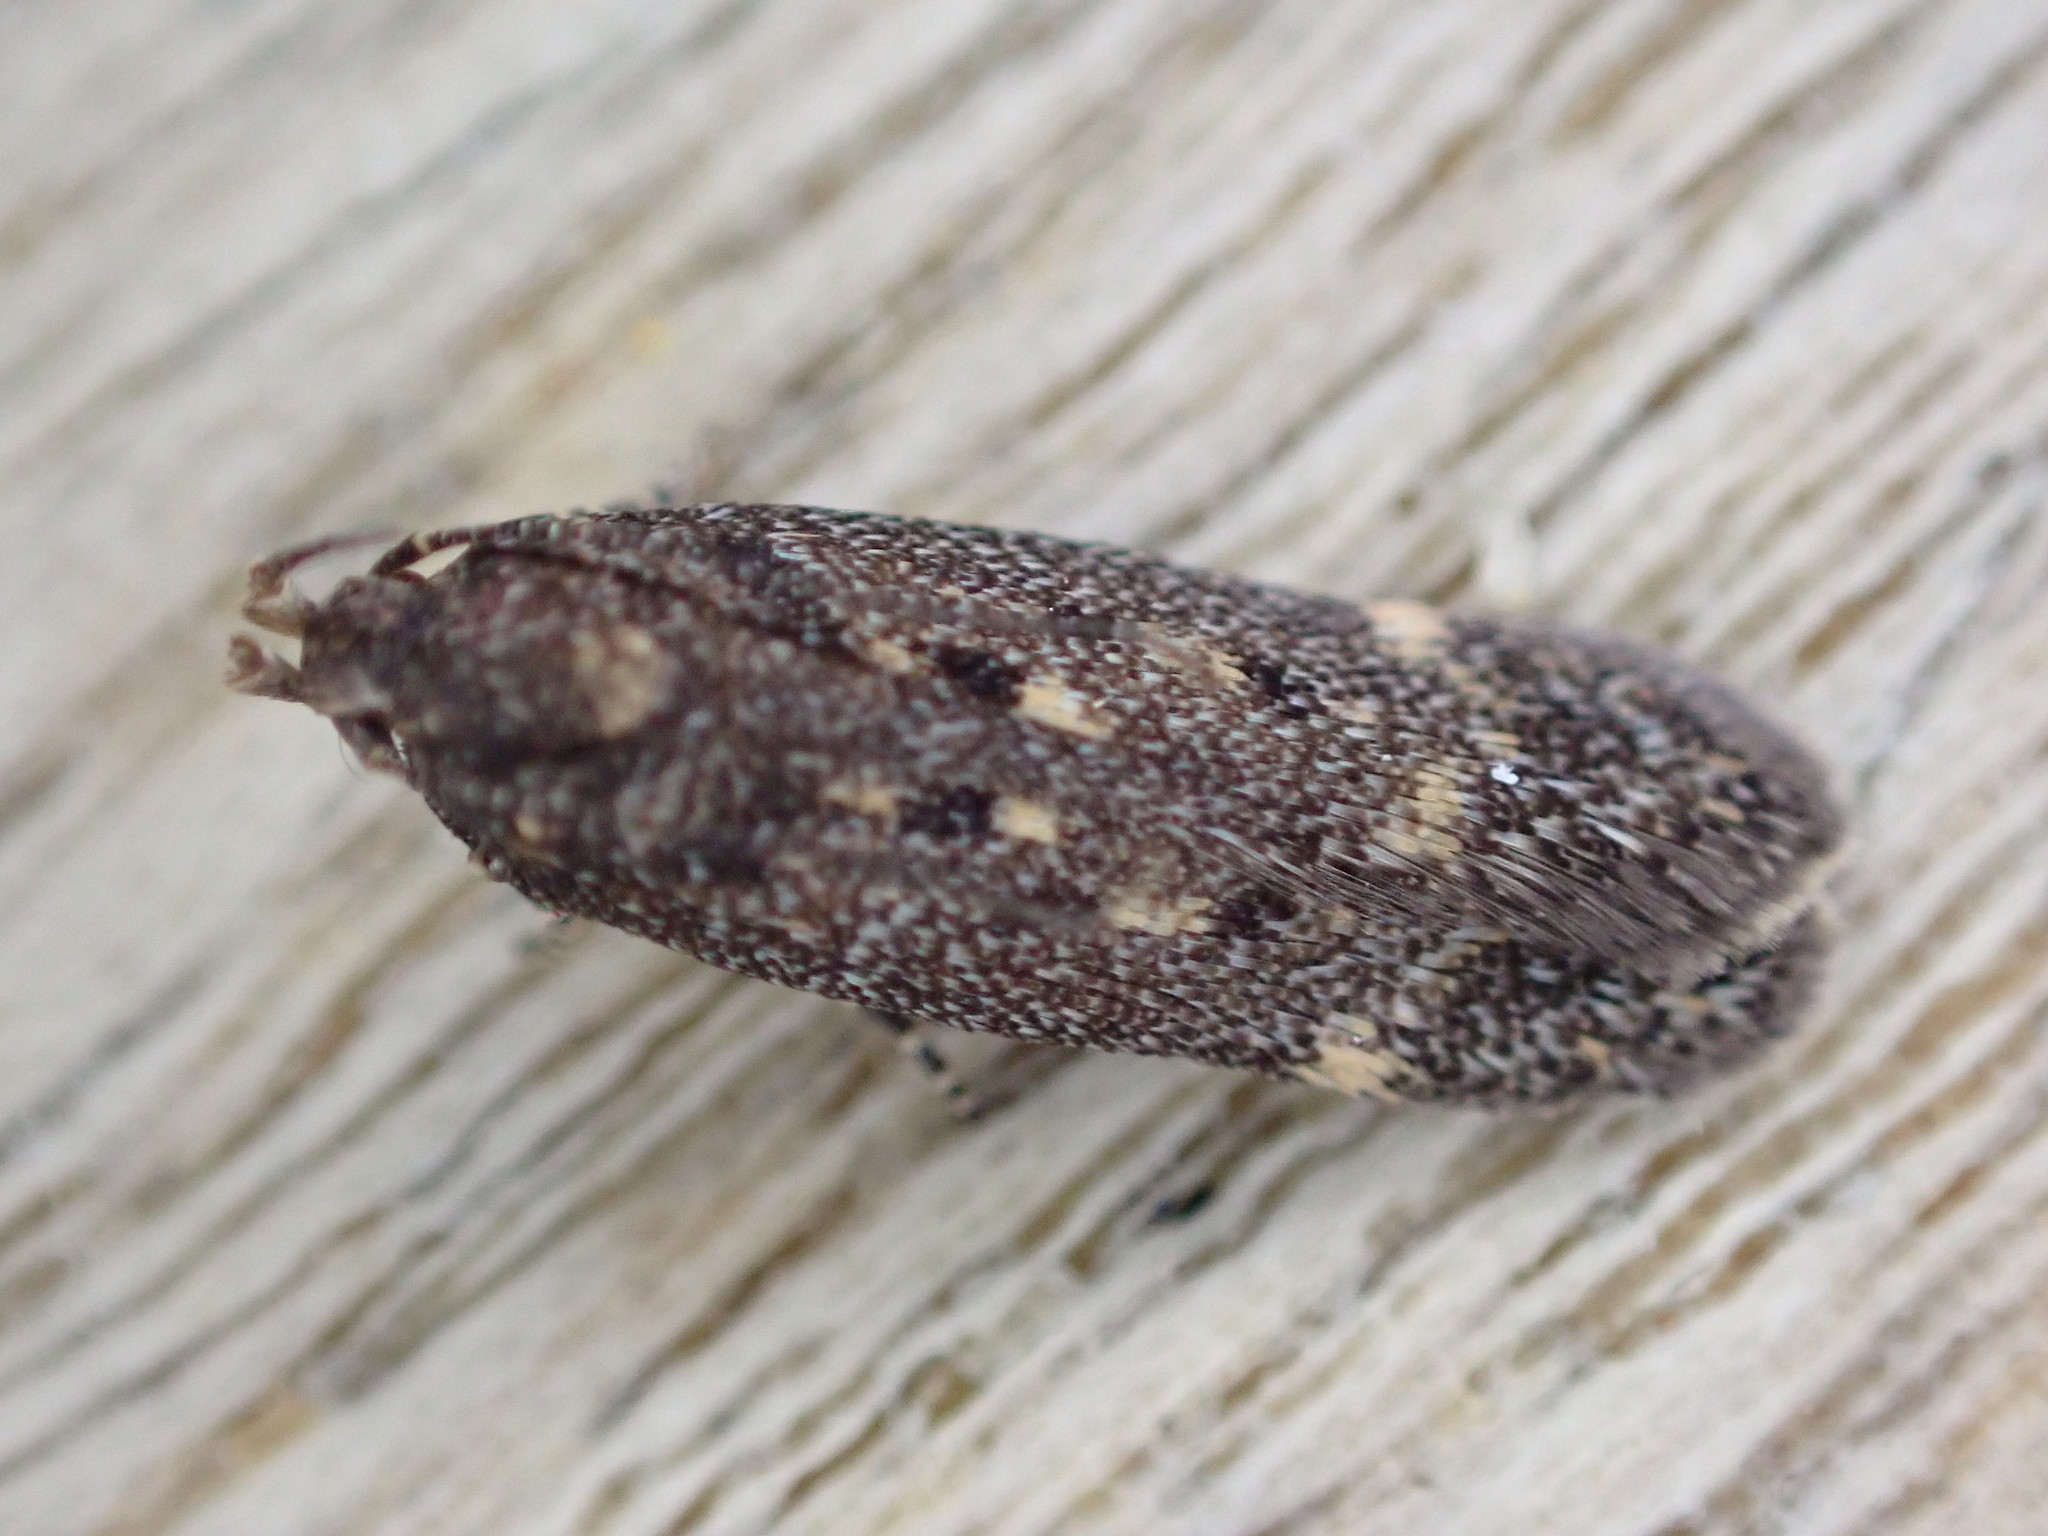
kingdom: Animalia
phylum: Arthropoda
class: Insecta
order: Lepidoptera
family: Gelechiidae
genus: Bryotropha
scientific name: Bryotropha affinis
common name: Dark groundling
